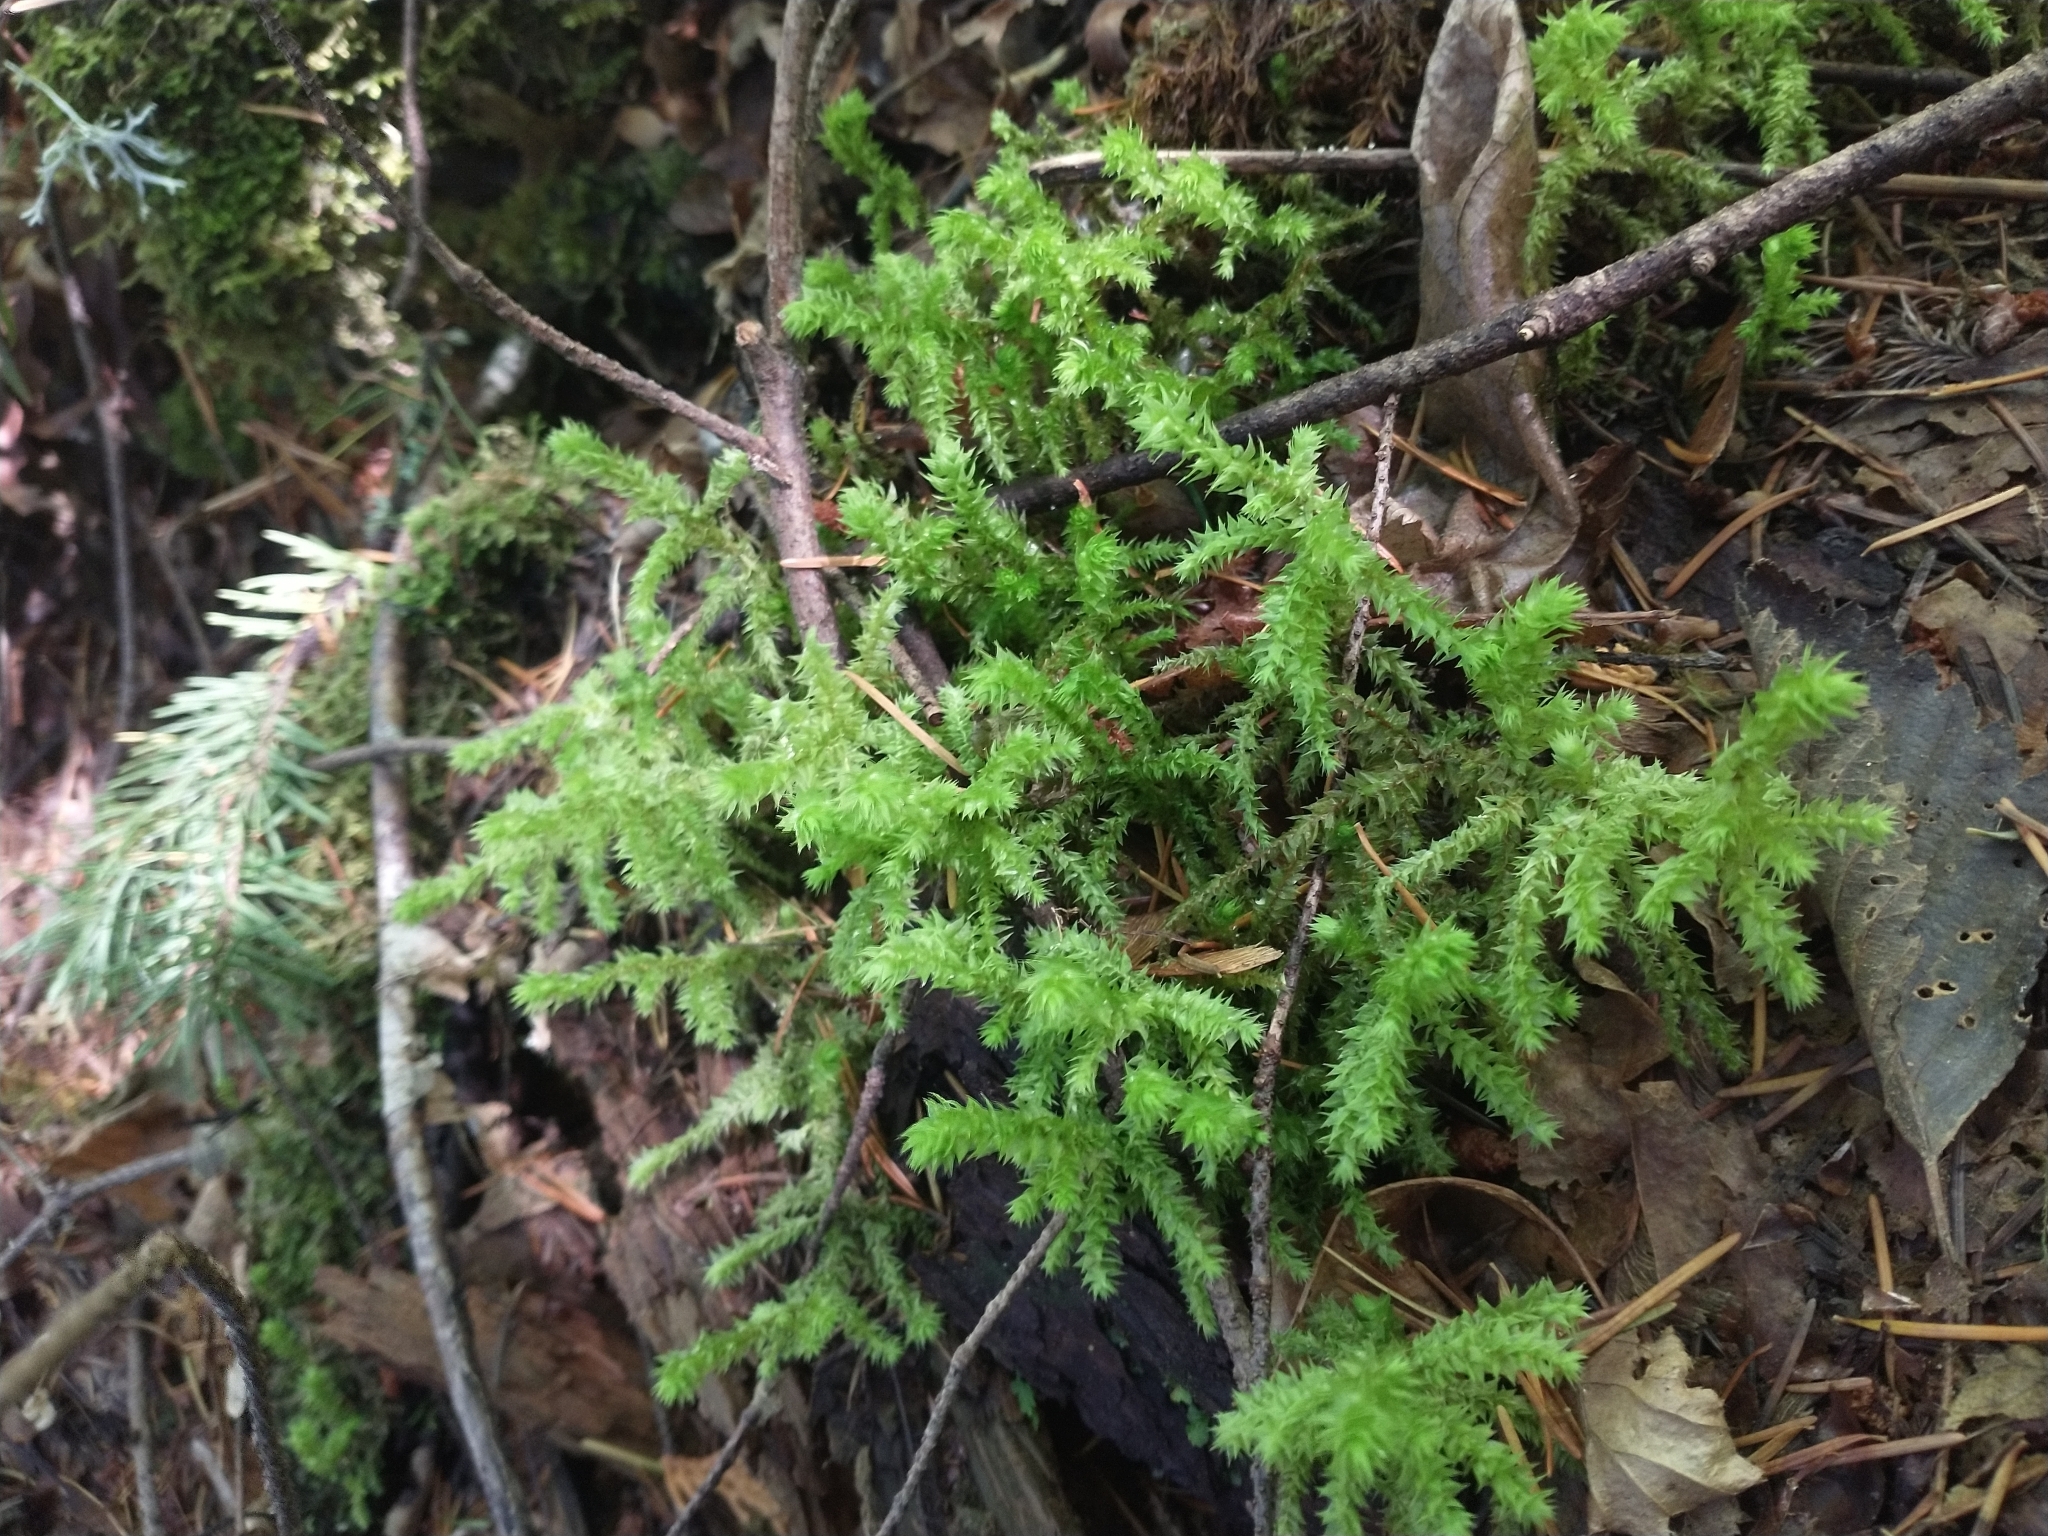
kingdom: Plantae
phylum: Bryophyta
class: Bryopsida
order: Hypnales
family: Hylocomiaceae
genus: Hylocomiadelphus
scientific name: Hylocomiadelphus triquetrus
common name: Rough goose neck moss
